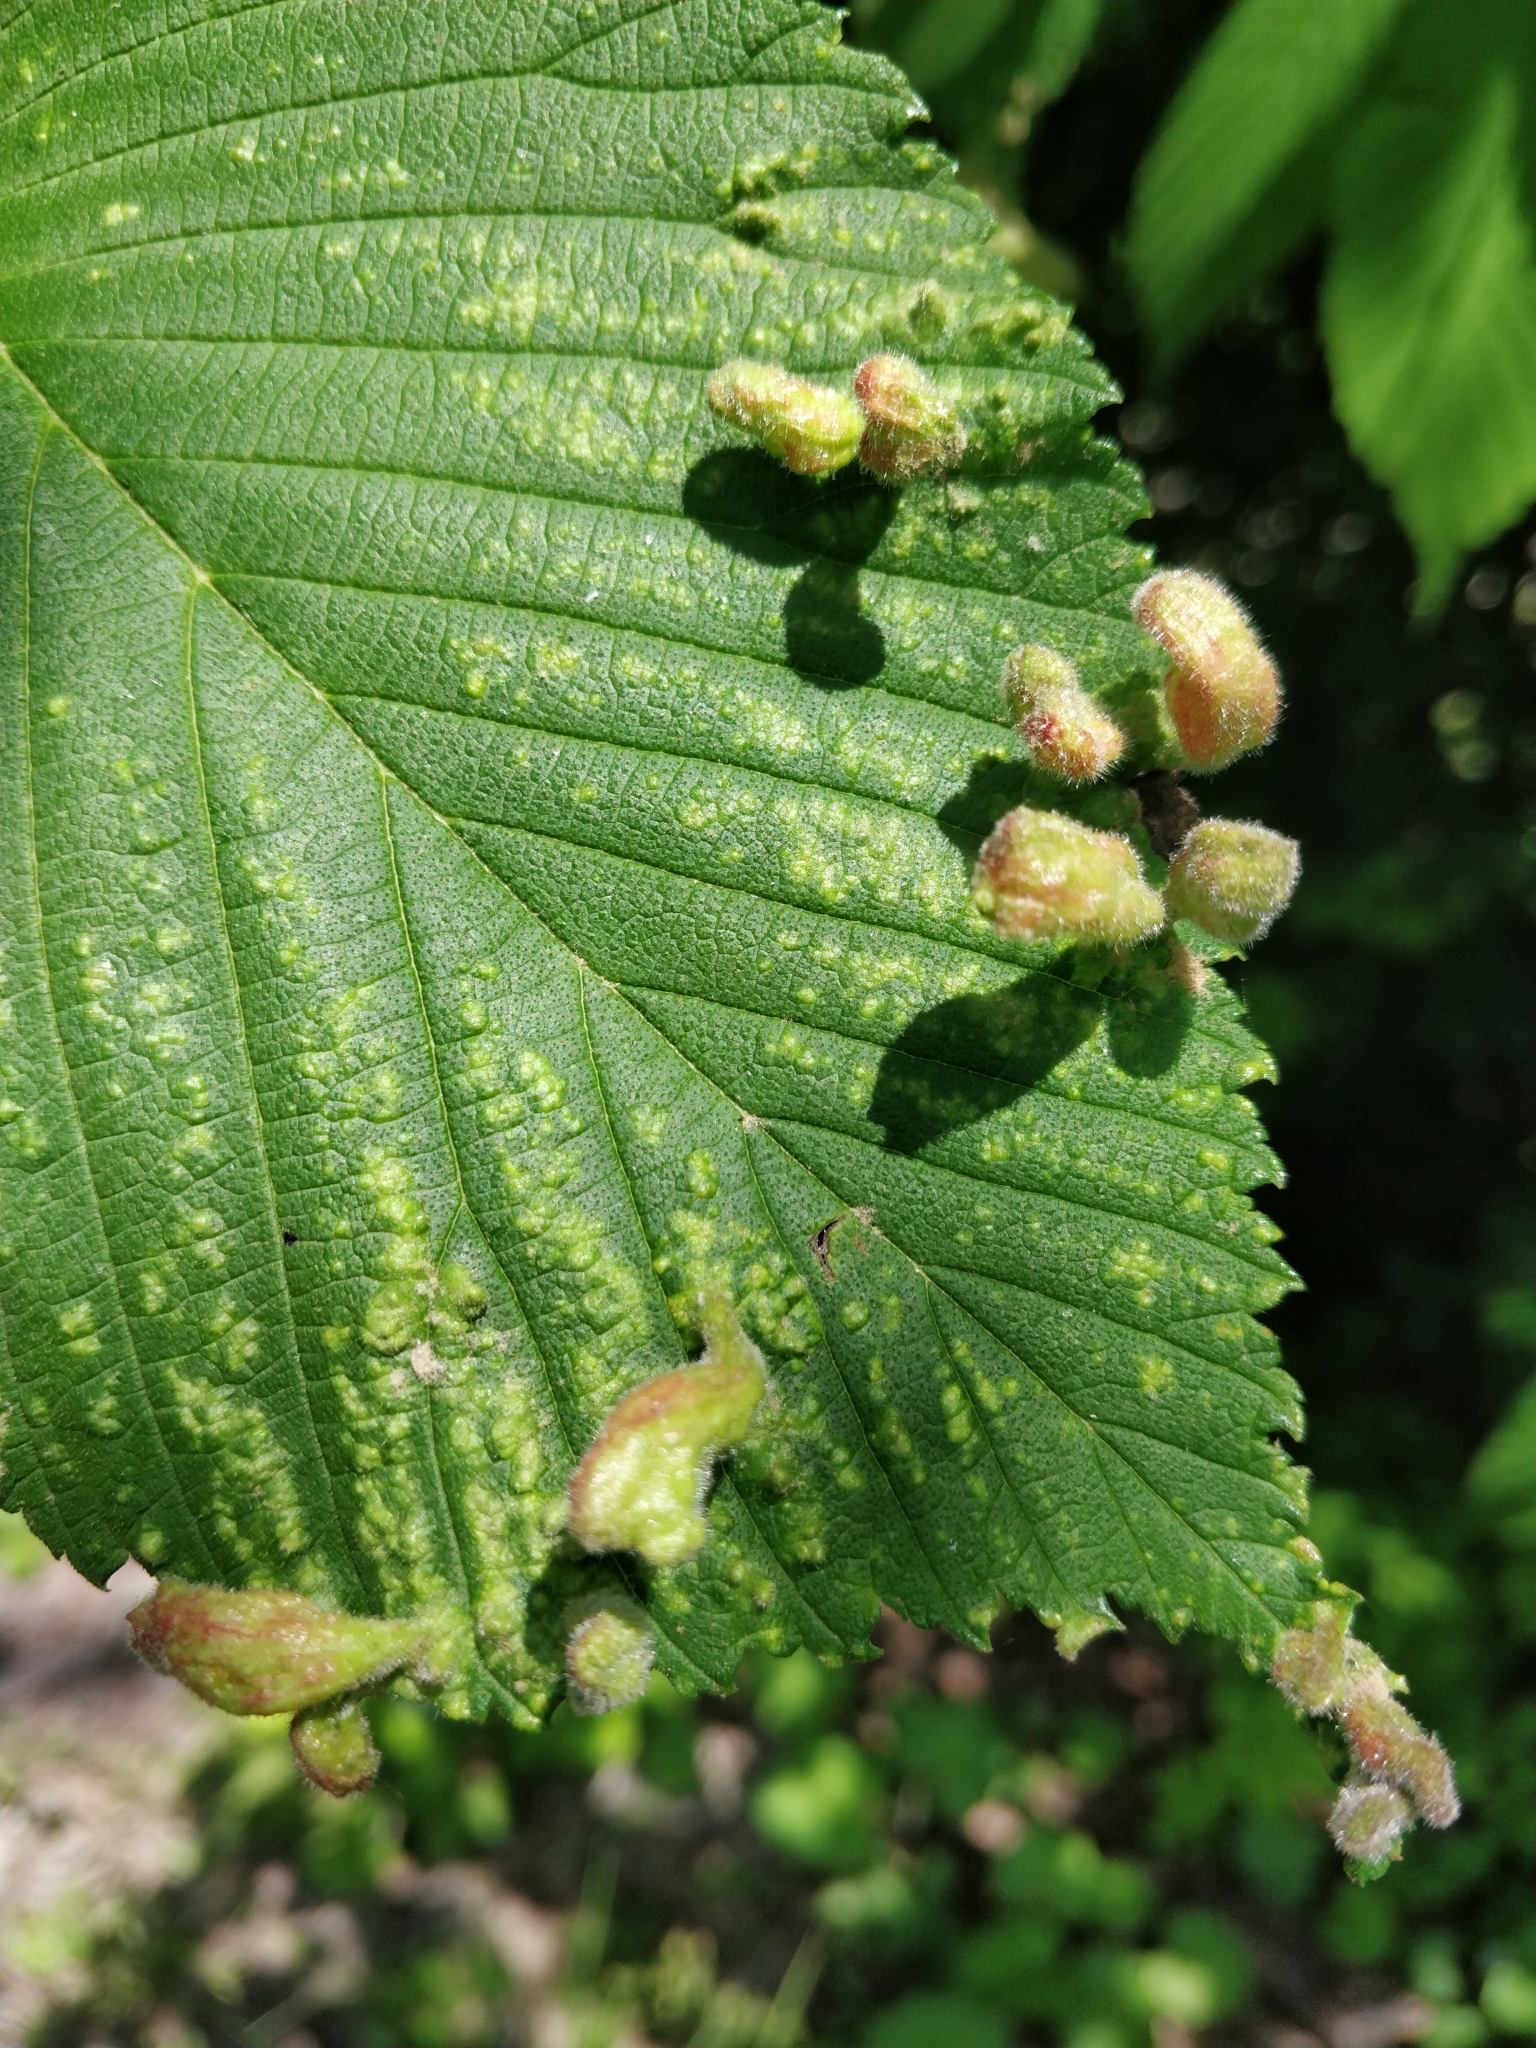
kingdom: Animalia
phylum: Arthropoda
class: Insecta
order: Hemiptera
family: Aphididae
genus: Tetraneura
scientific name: Tetraneura nigriabdominalis
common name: Aphid
